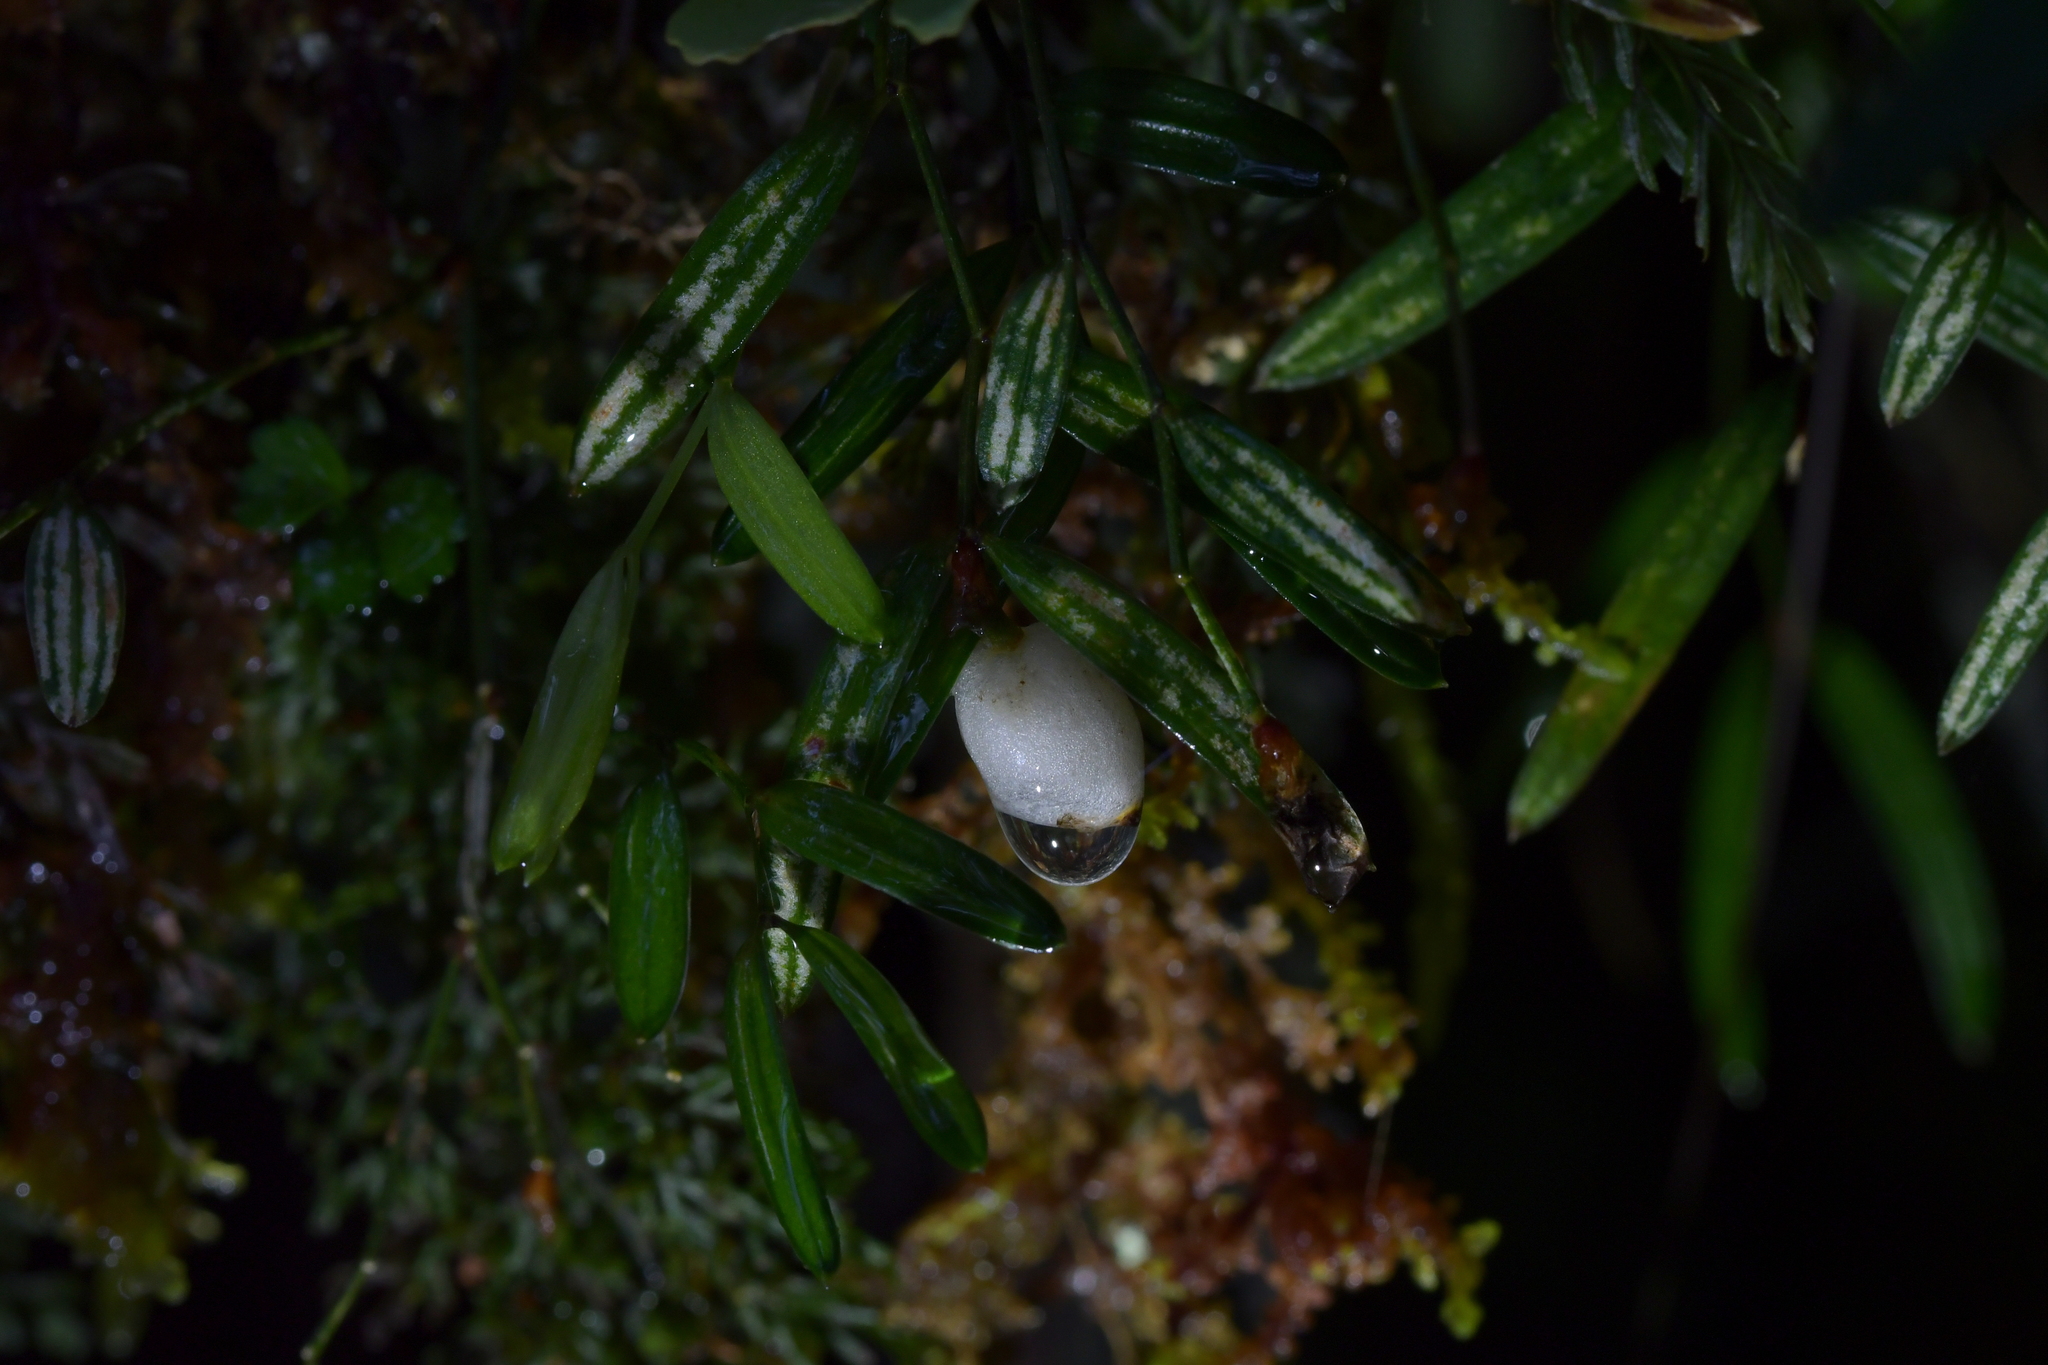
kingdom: Plantae
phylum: Tracheophyta
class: Liliopsida
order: Liliales
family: Alstroemeriaceae
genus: Luzuriaga
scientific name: Luzuriaga parviflora
